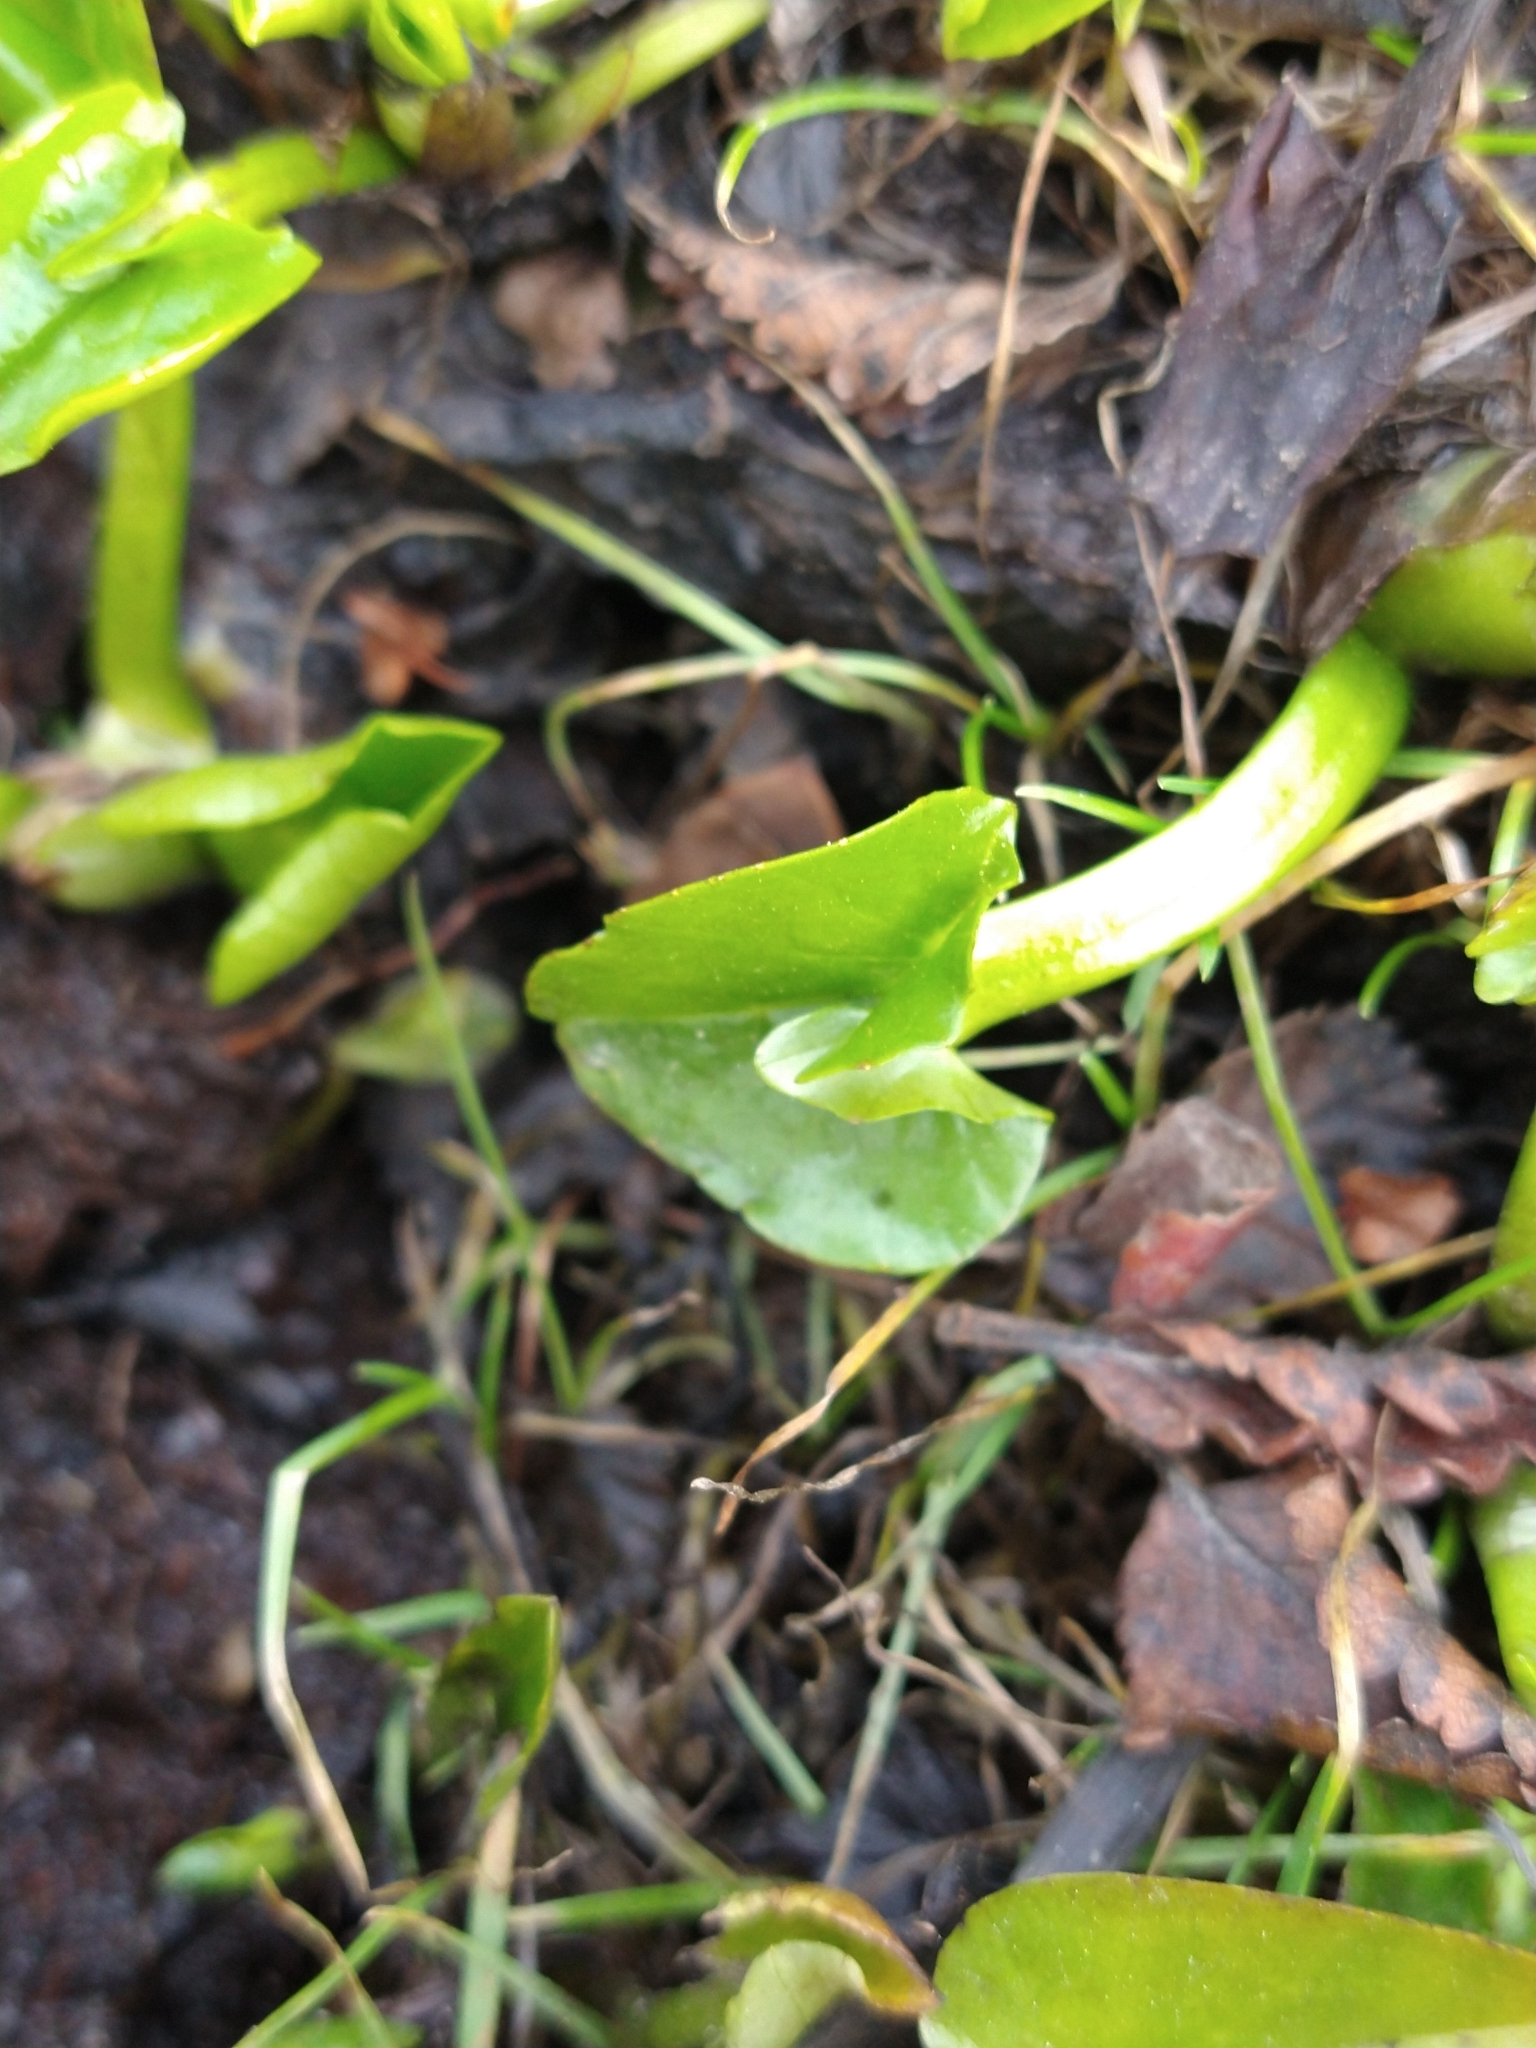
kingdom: Plantae
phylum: Tracheophyta
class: Magnoliopsida
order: Ranunculales
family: Ranunculaceae
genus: Caltha
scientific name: Caltha sagittata
